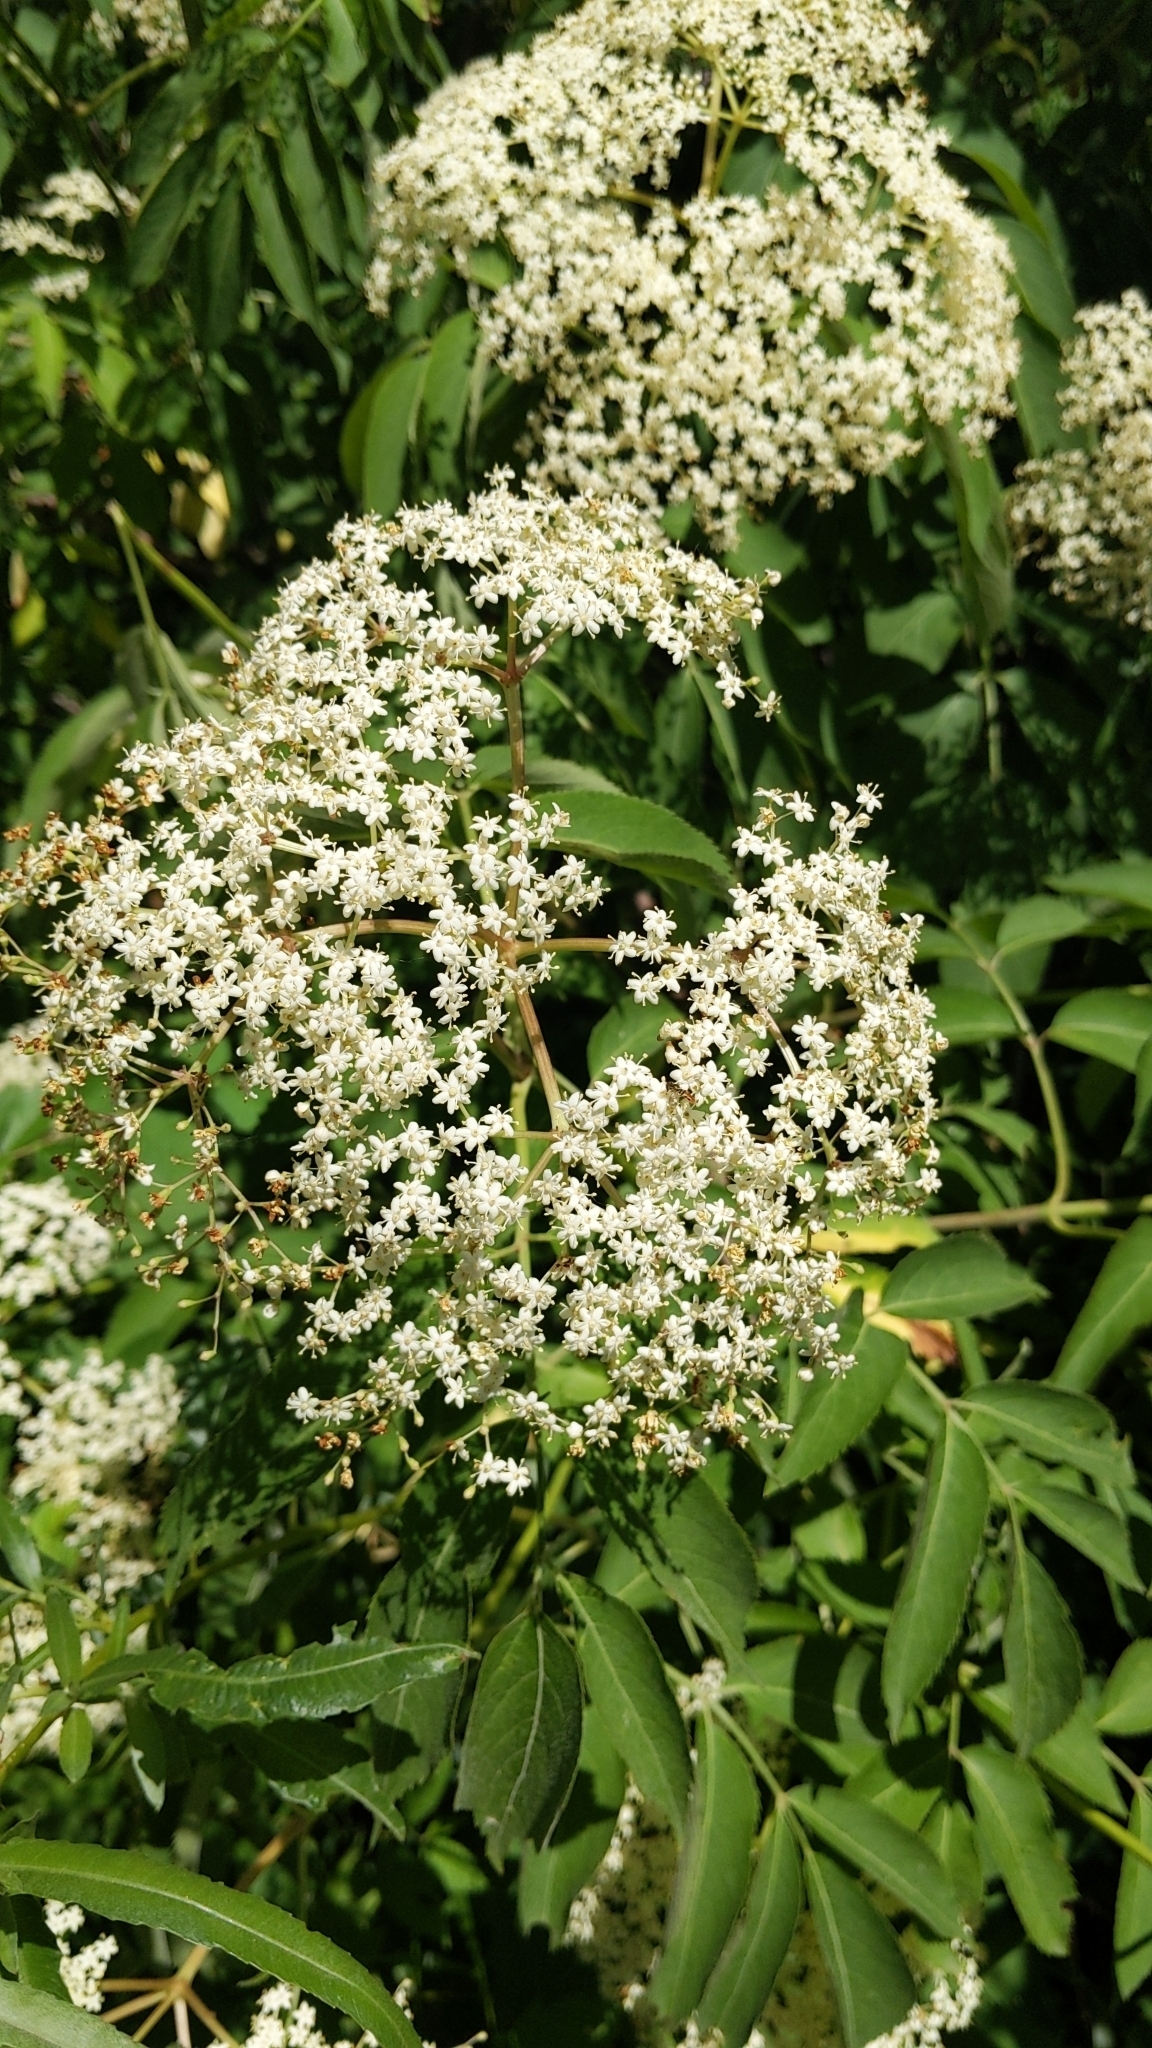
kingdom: Plantae
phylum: Tracheophyta
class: Magnoliopsida
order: Dipsacales
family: Viburnaceae
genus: Sambucus
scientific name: Sambucus canadensis
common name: American elder
